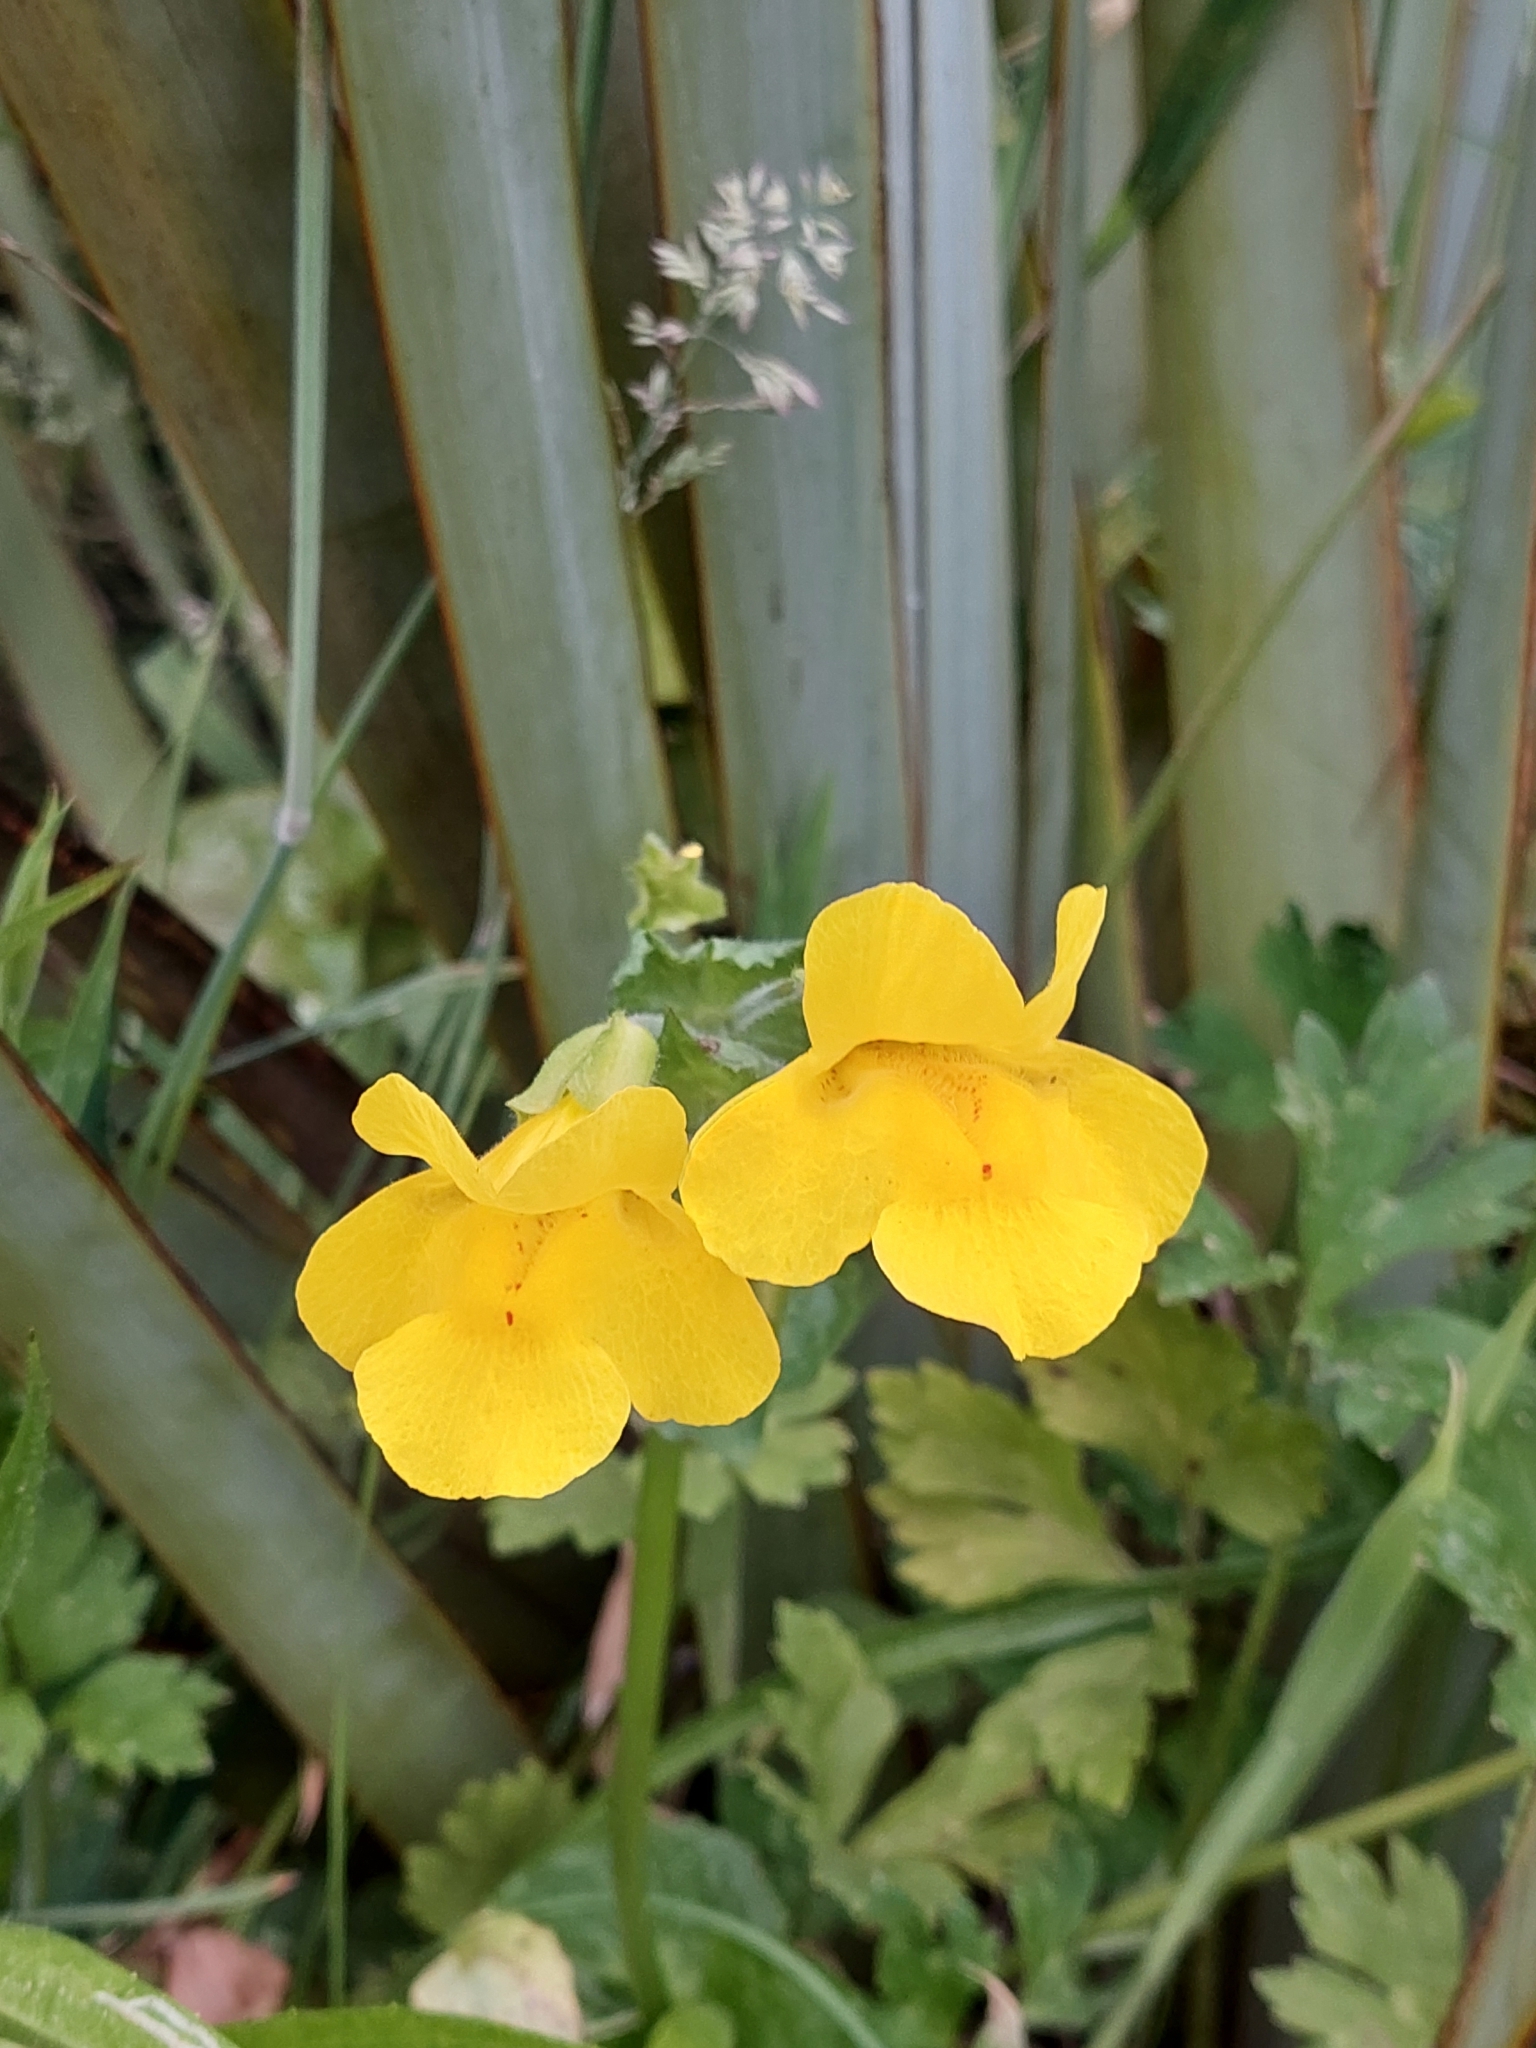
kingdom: Plantae
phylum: Tracheophyta
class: Magnoliopsida
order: Lamiales
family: Phrymaceae
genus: Erythranthe
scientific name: Erythranthe guttata
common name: Monkeyflower
